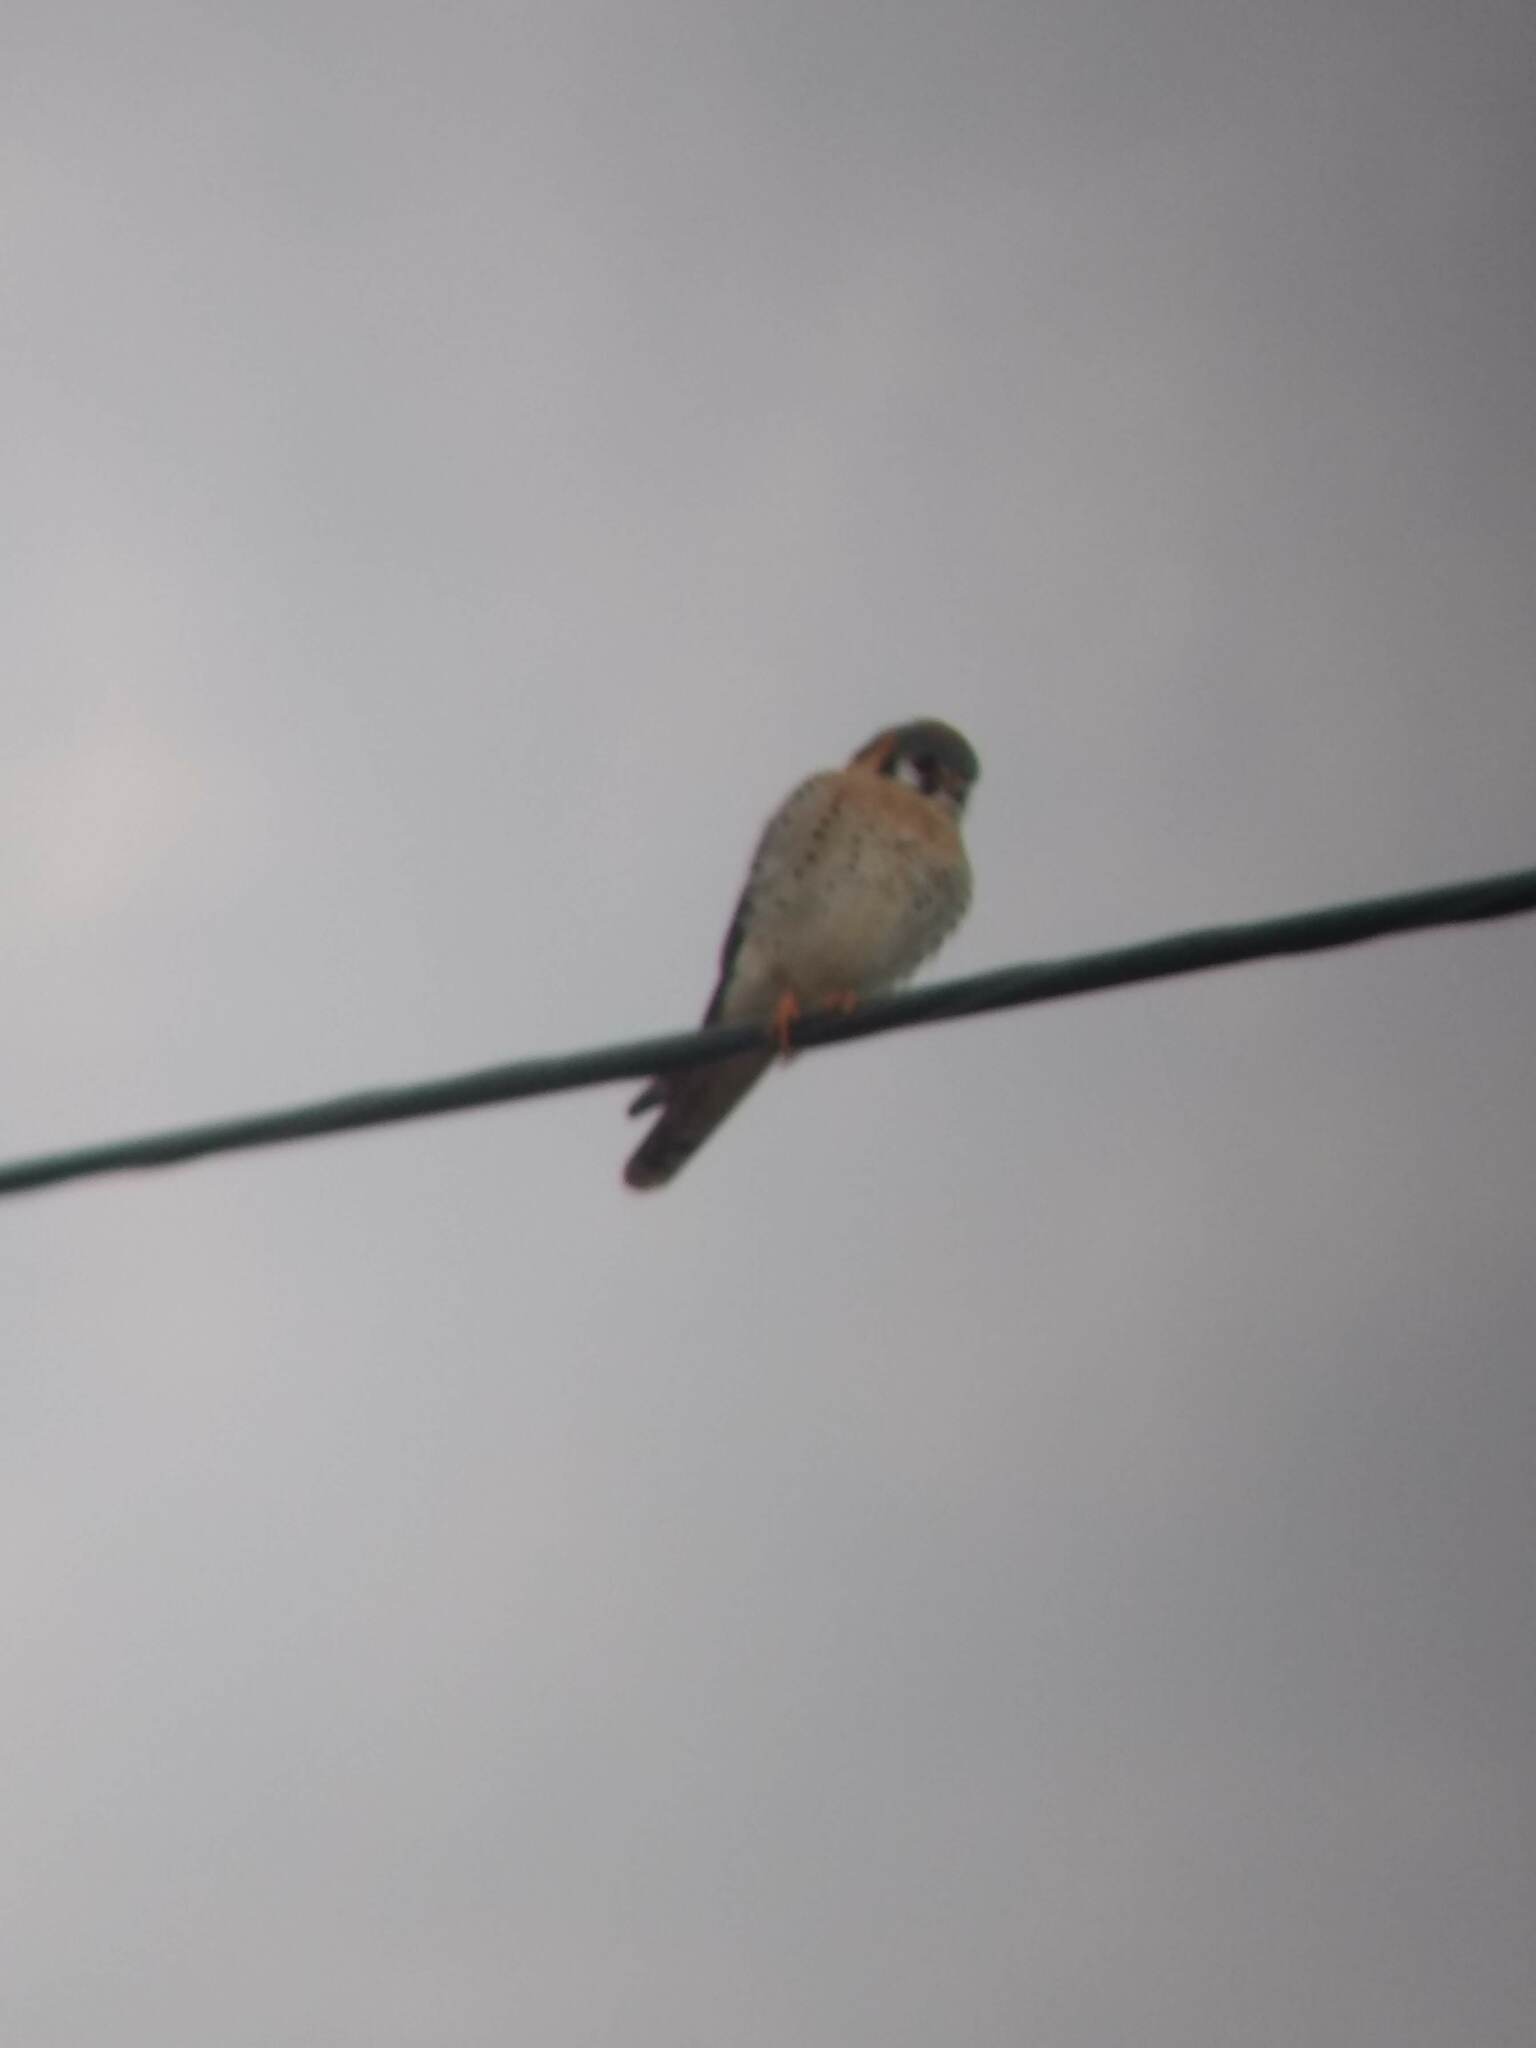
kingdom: Animalia
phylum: Chordata
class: Aves
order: Falconiformes
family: Falconidae
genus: Falco
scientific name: Falco sparverius
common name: American kestrel
